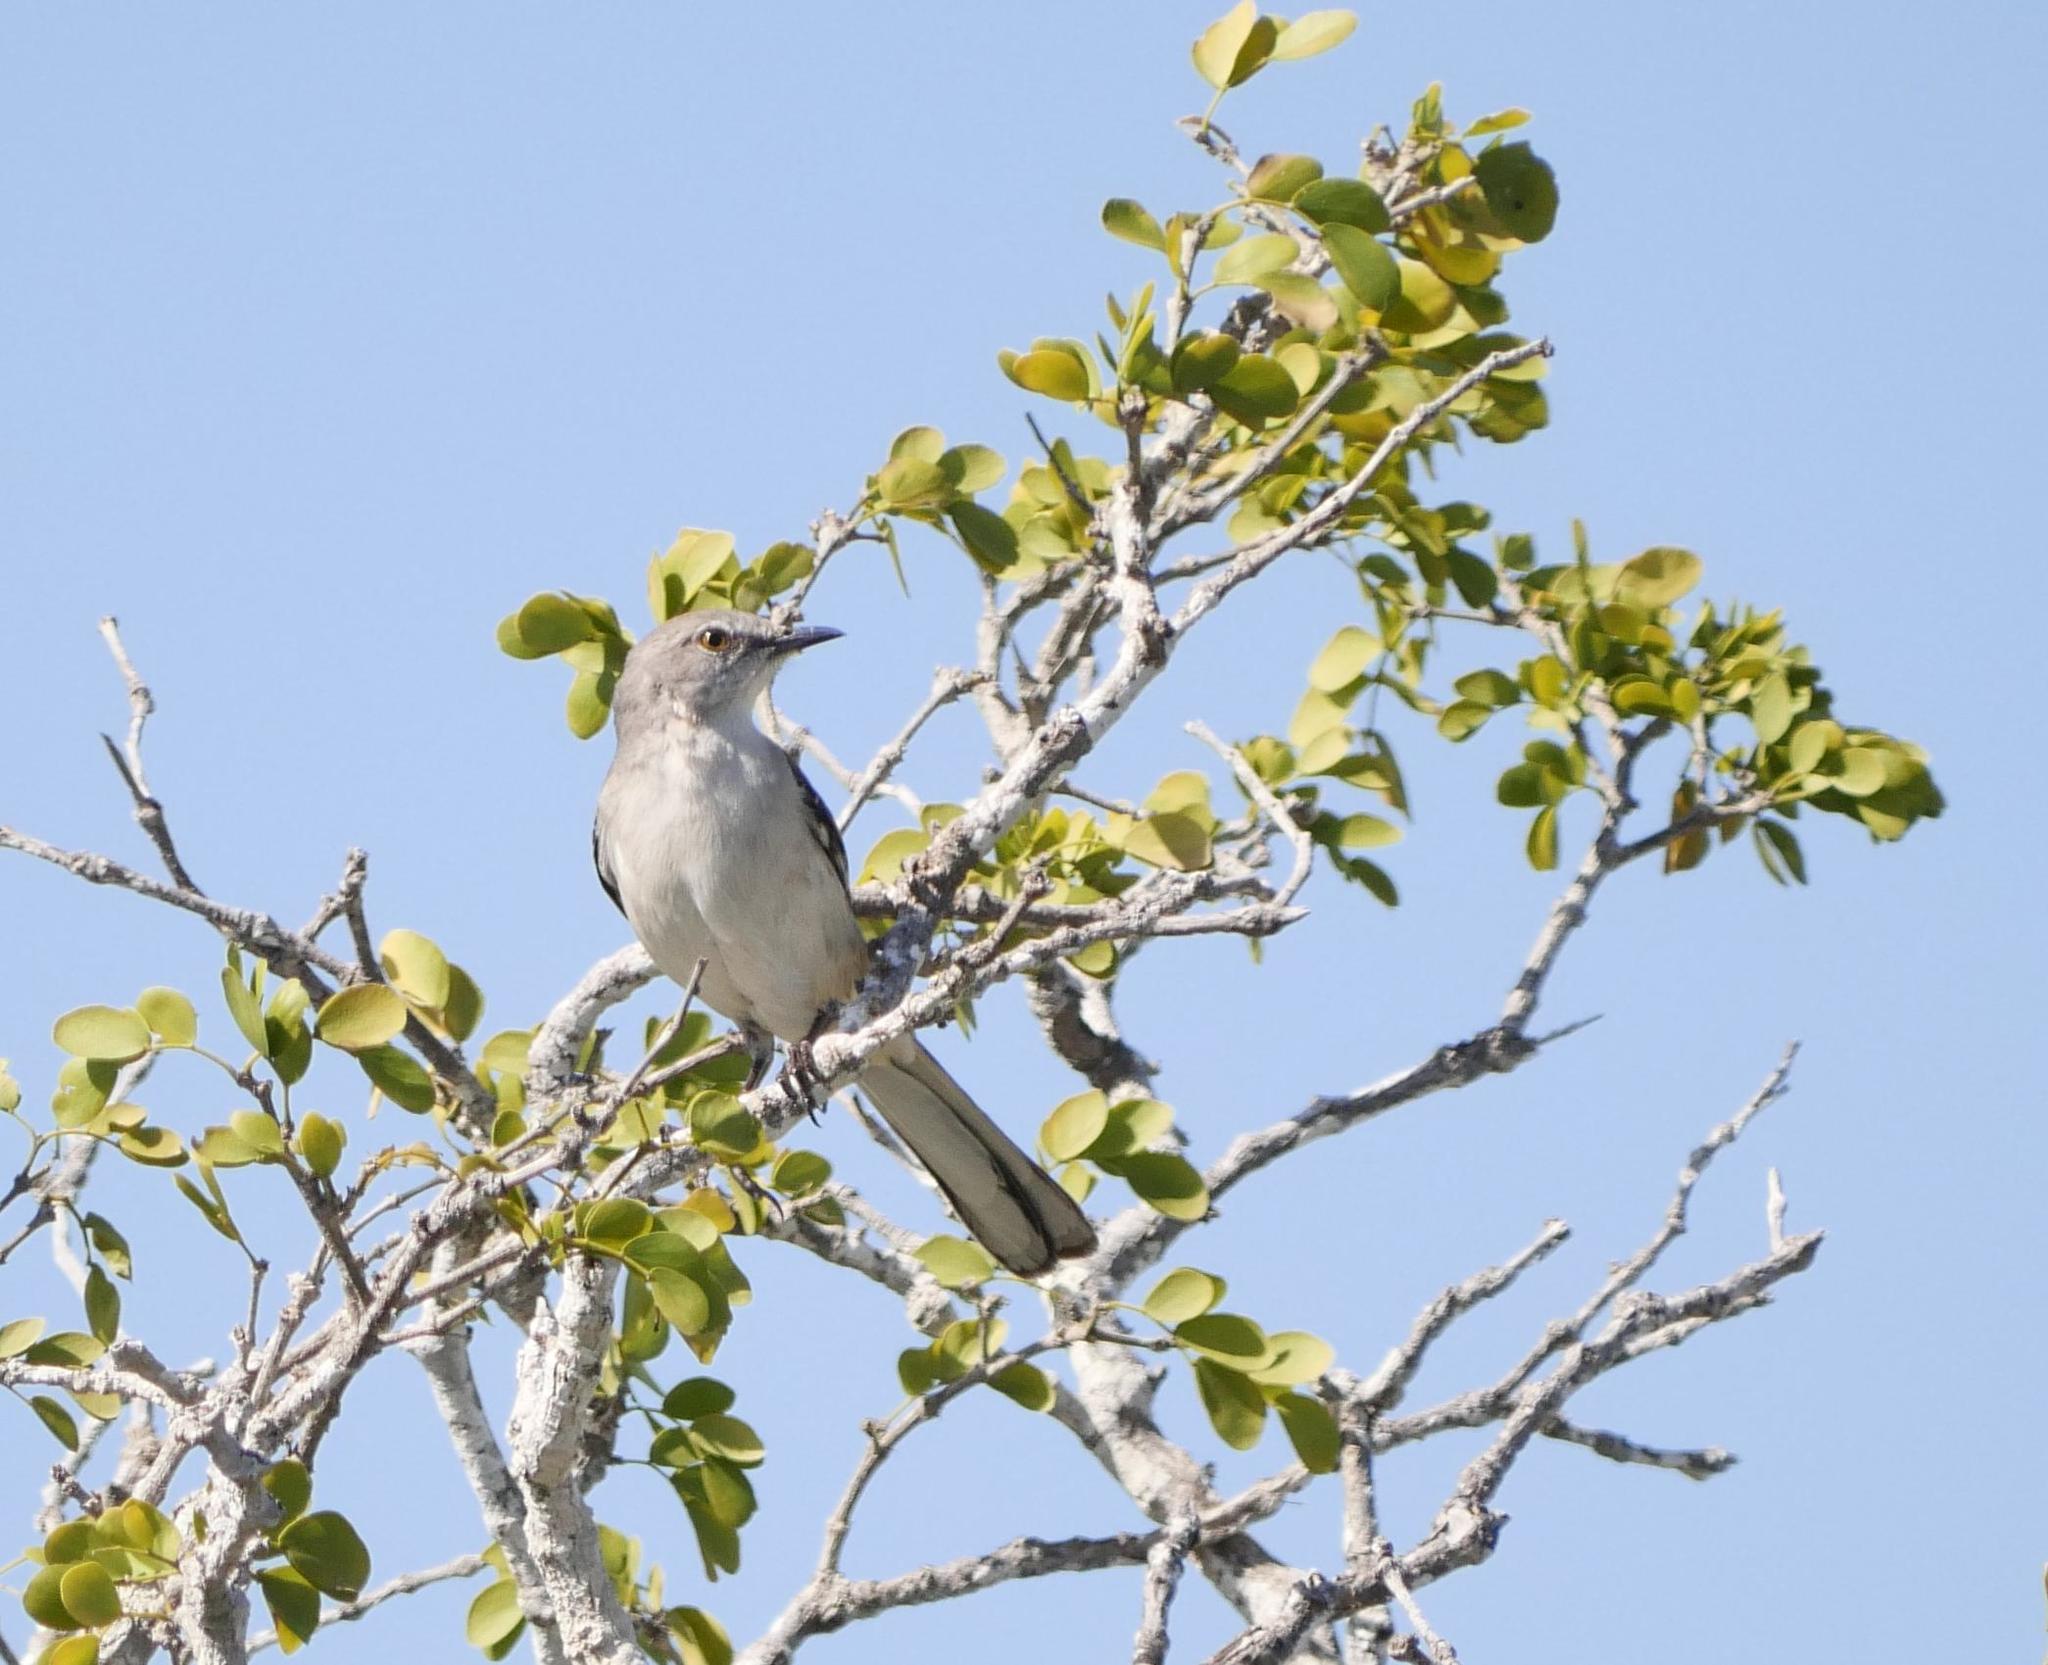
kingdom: Animalia
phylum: Chordata
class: Aves
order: Passeriformes
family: Mimidae
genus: Mimus
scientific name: Mimus polyglottos
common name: Northern mockingbird
